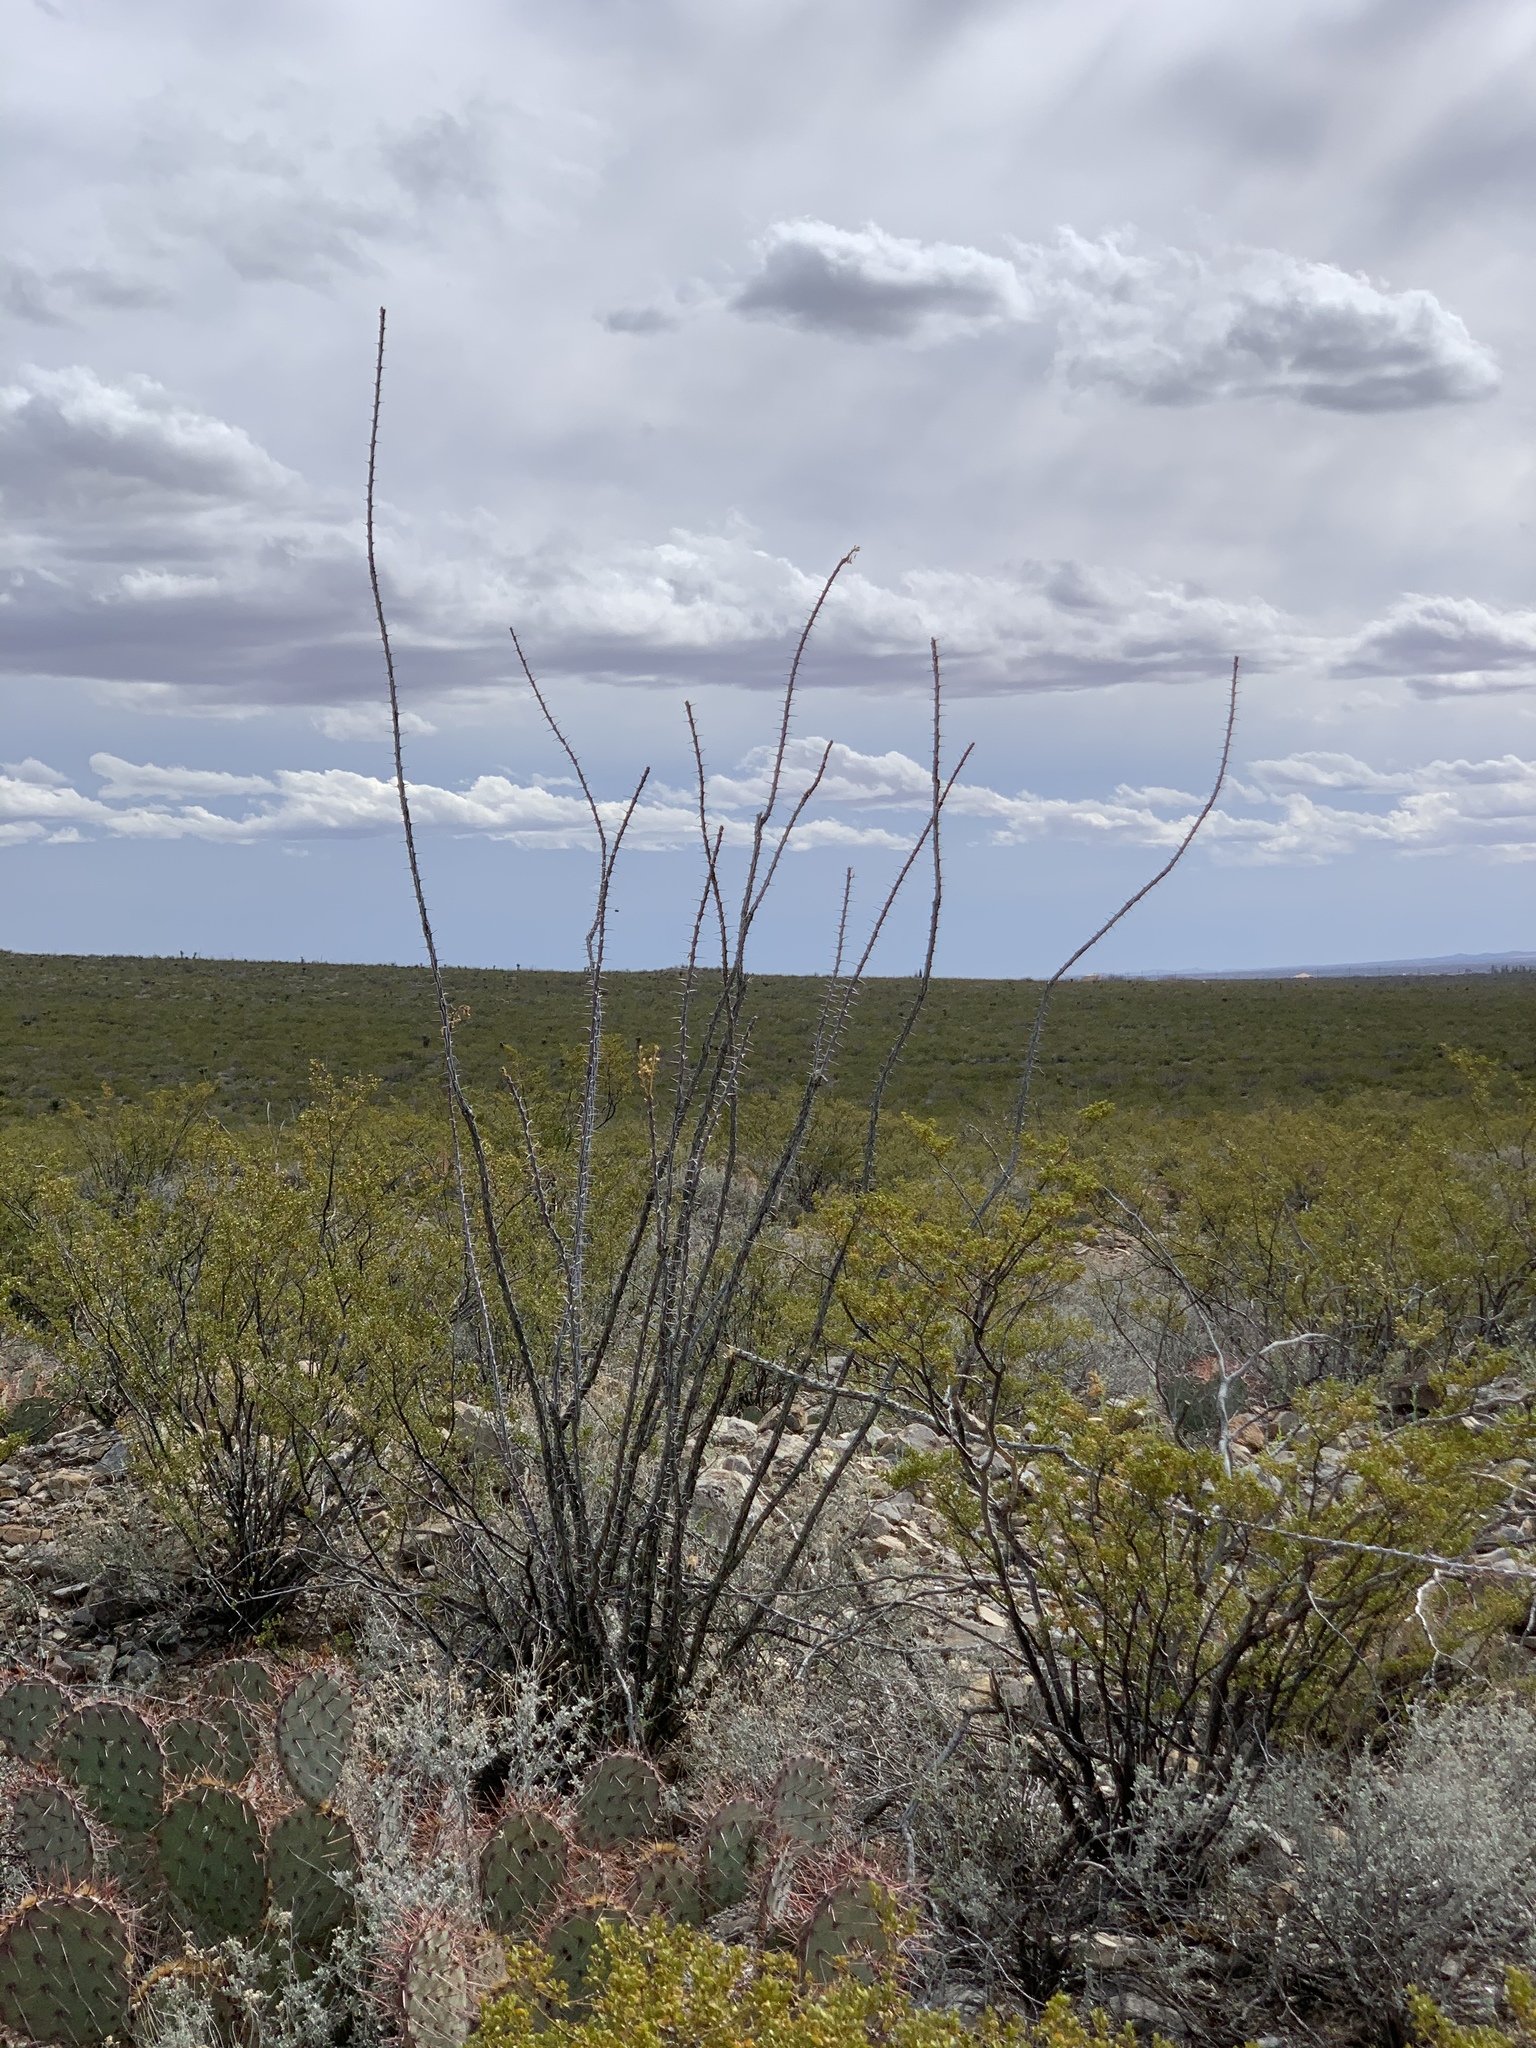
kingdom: Plantae
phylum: Tracheophyta
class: Magnoliopsida
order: Ericales
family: Fouquieriaceae
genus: Fouquieria
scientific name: Fouquieria splendens
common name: Vine-cactus
